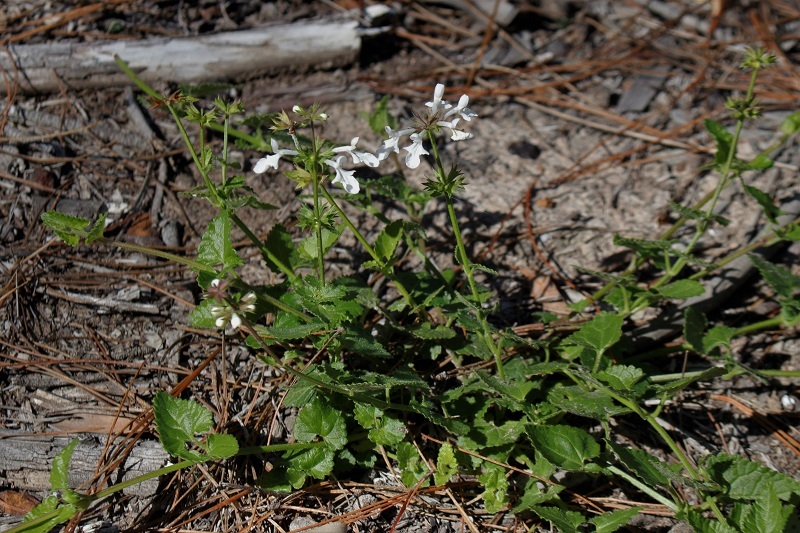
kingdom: Plantae
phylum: Tracheophyta
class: Magnoliopsida
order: Lamiales
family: Lamiaceae
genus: Stachys
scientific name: Stachys aethiopica
